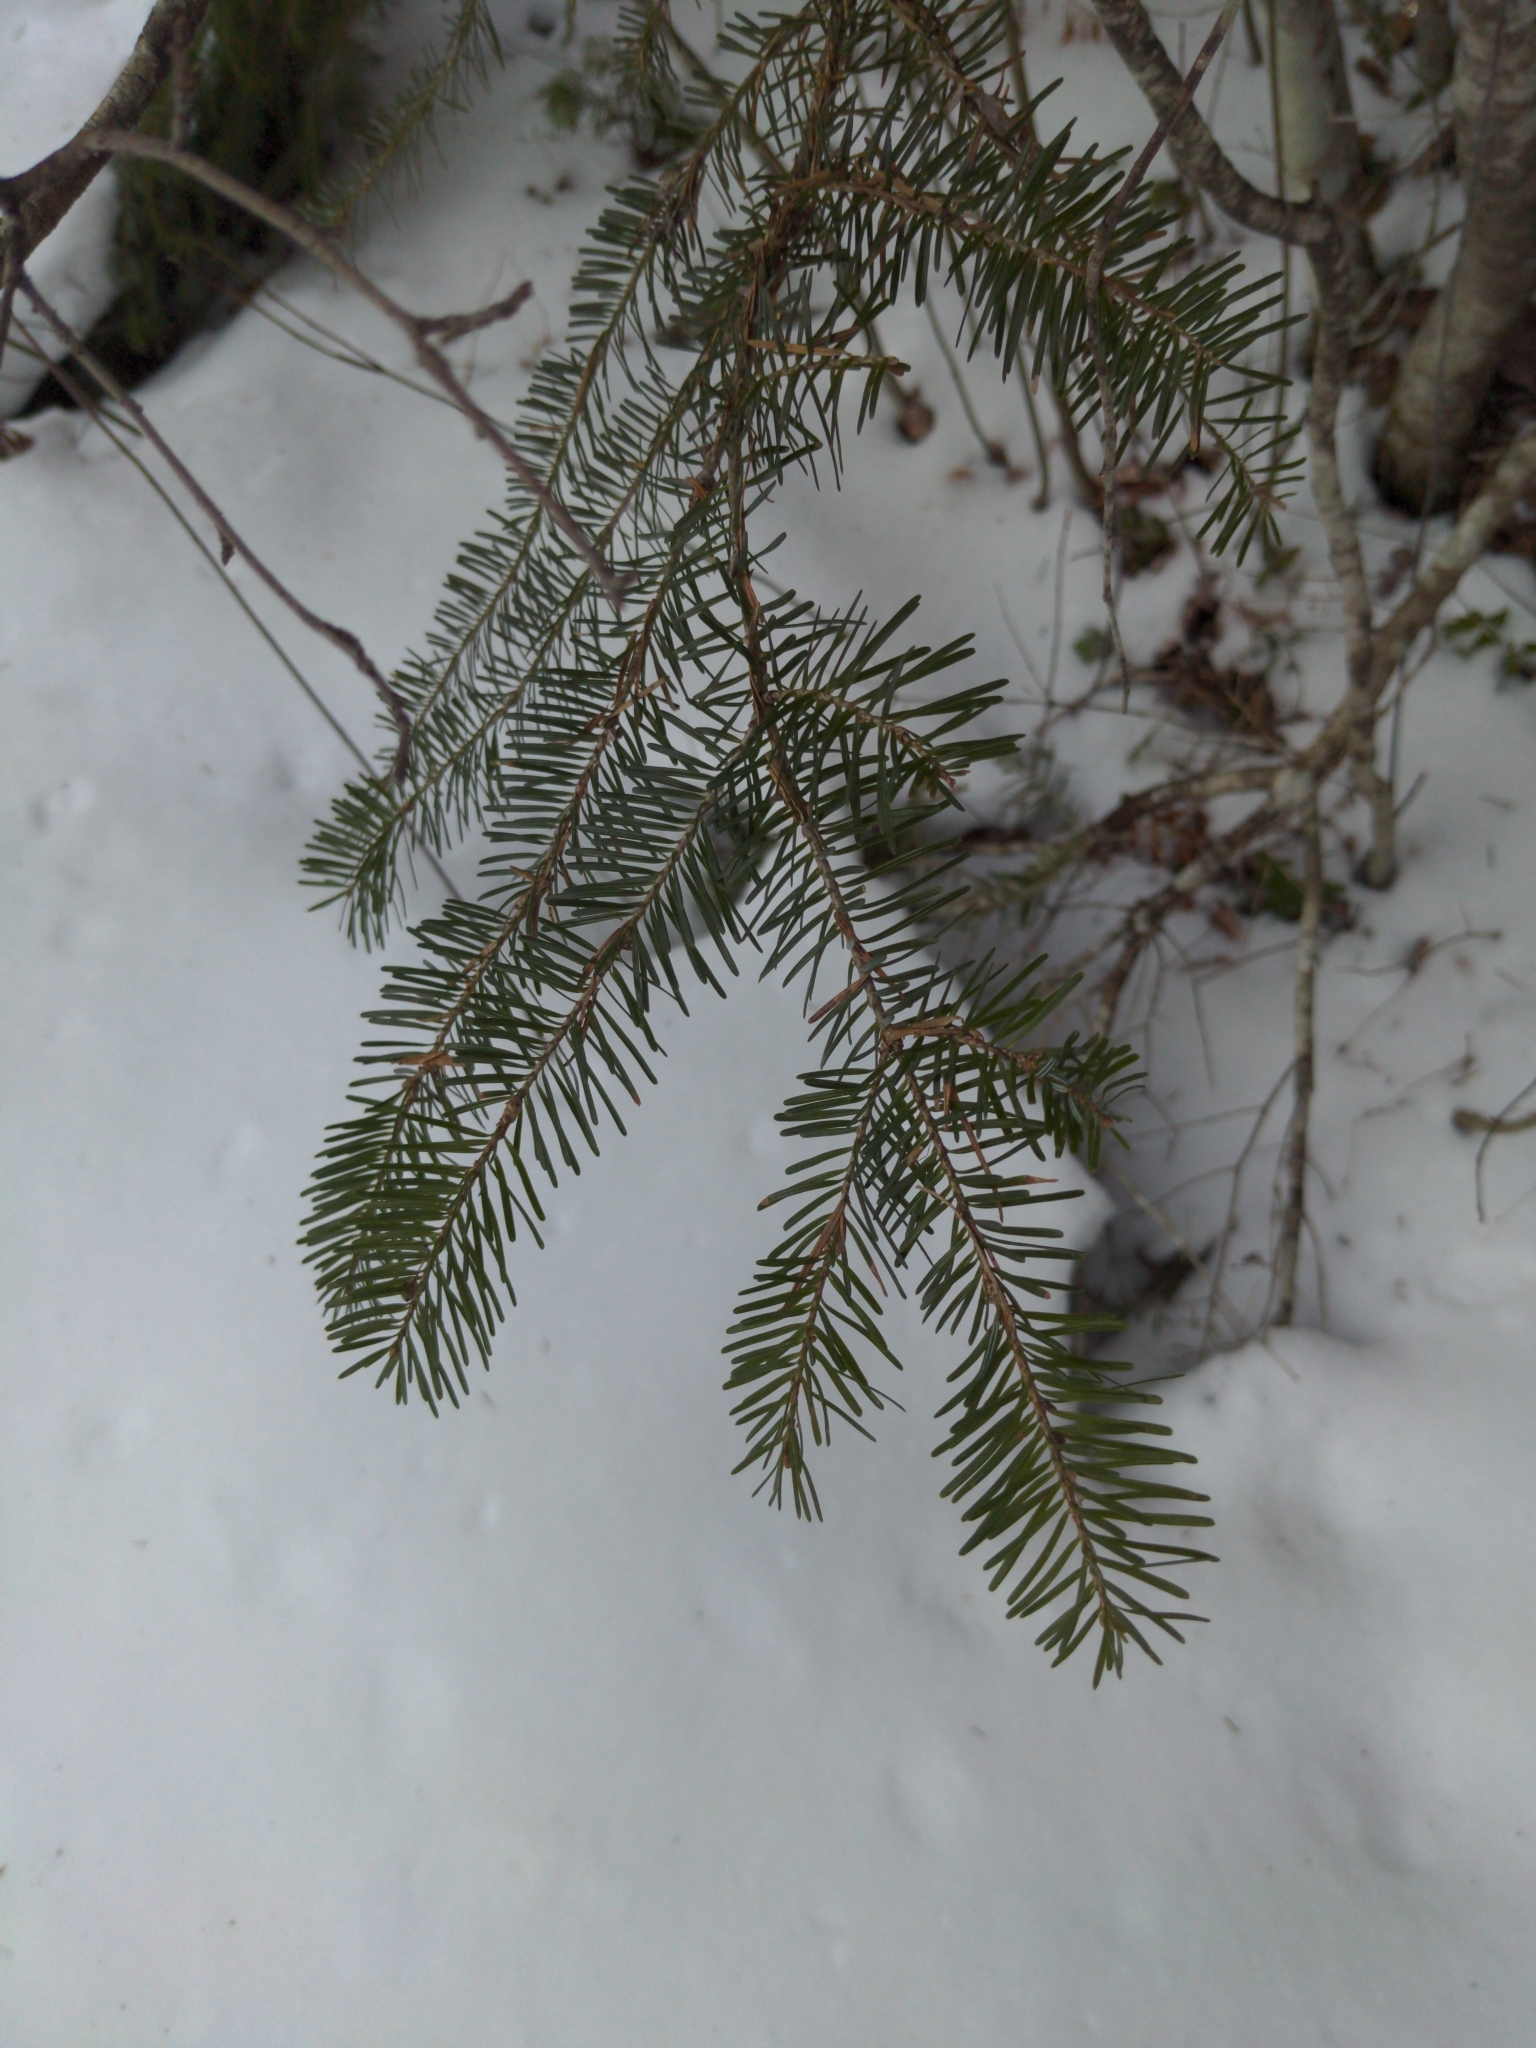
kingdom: Plantae
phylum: Tracheophyta
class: Pinopsida
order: Pinales
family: Pinaceae
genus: Abies
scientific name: Abies balsamea
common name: Balsam fir
